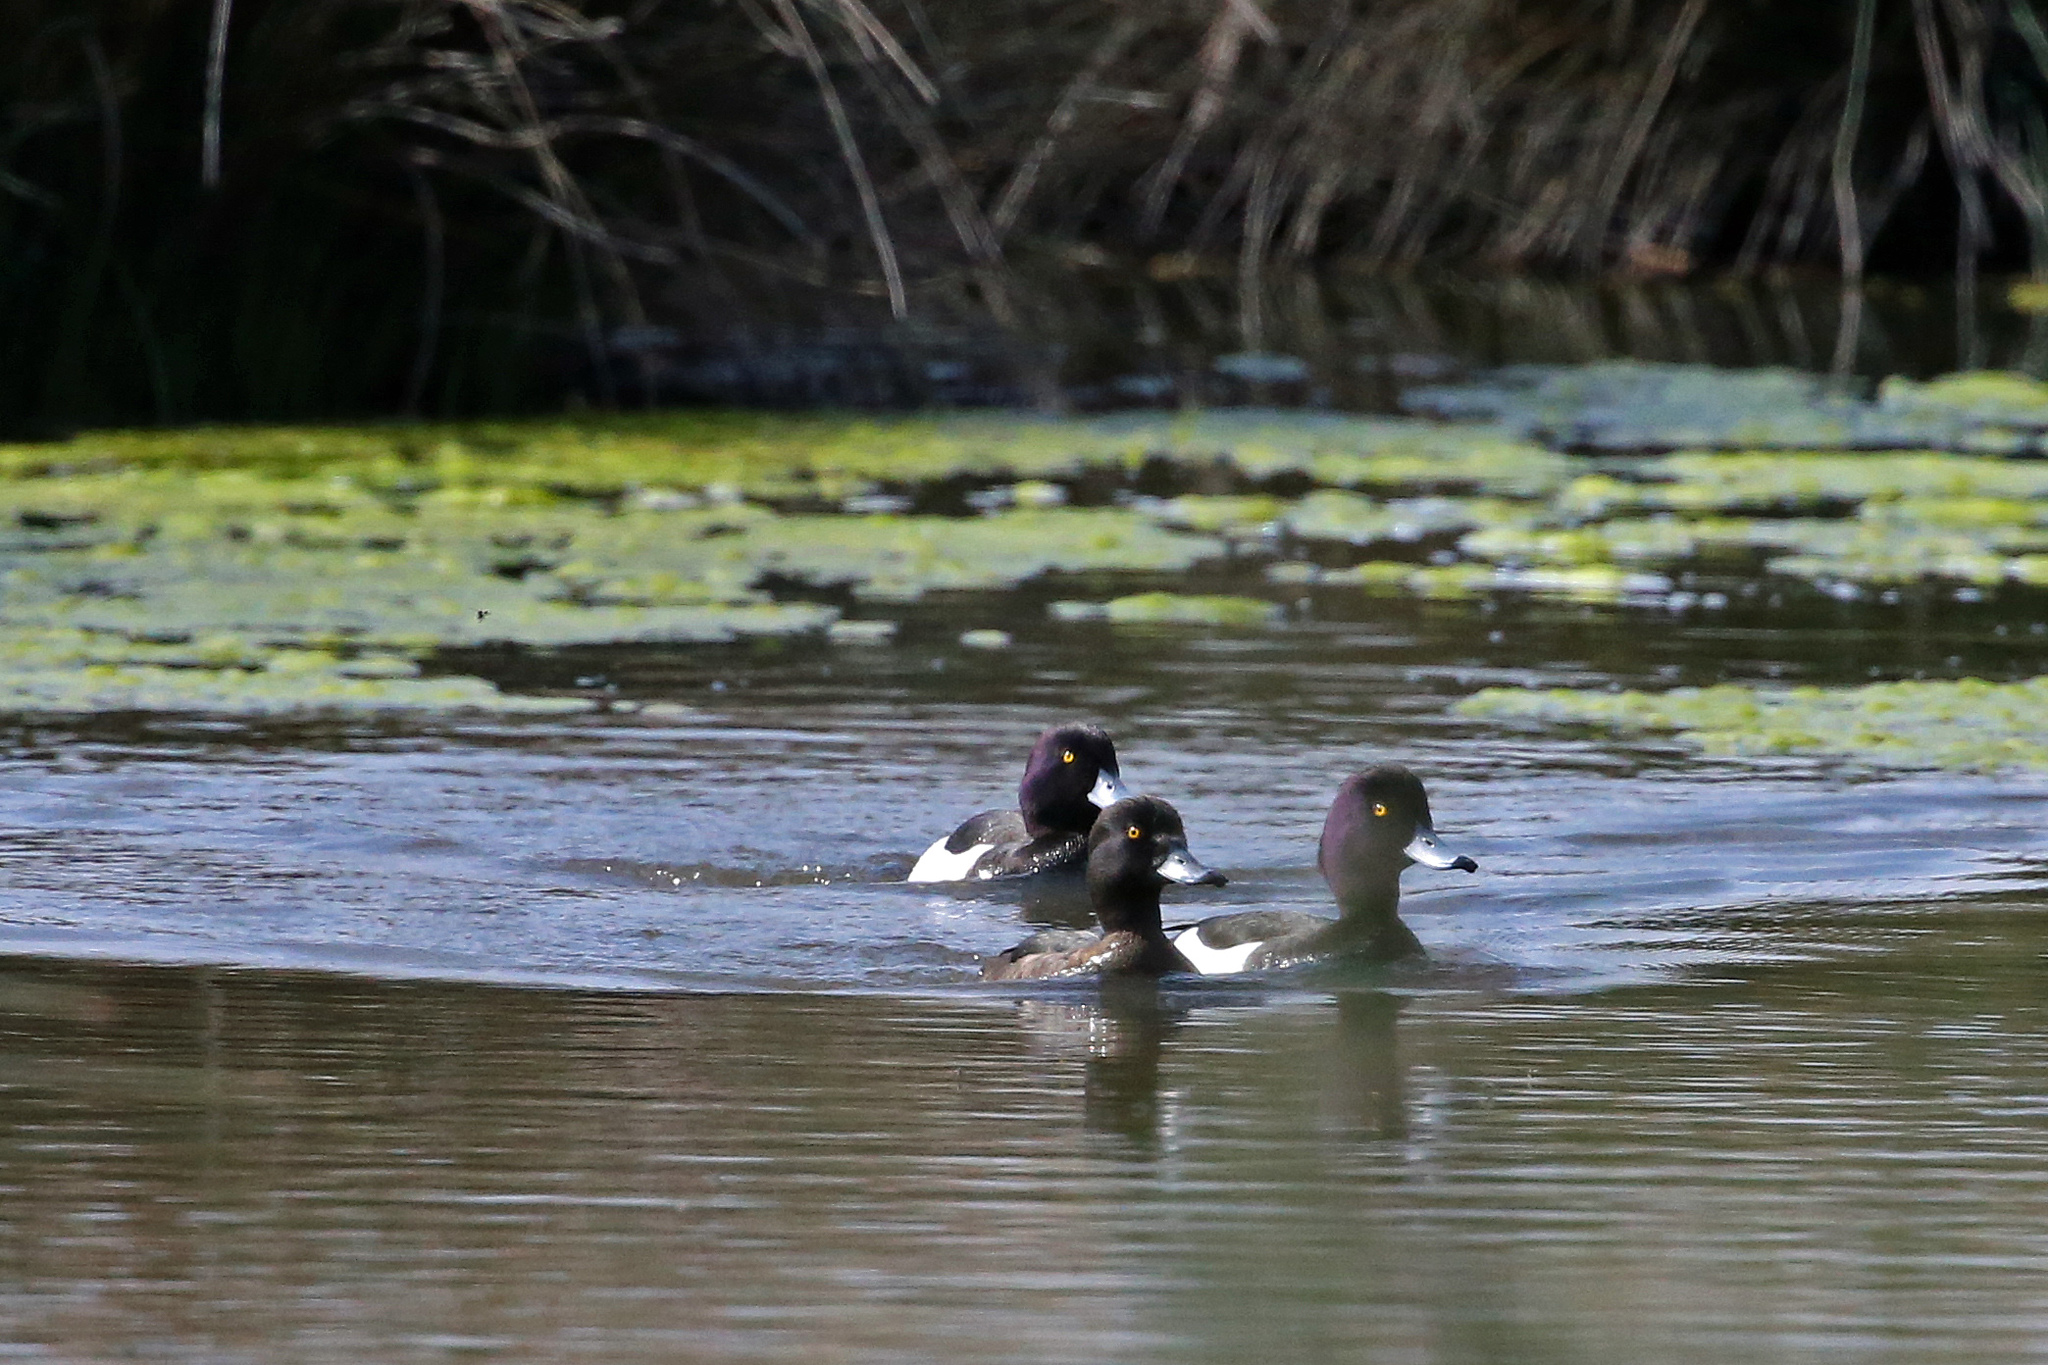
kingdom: Animalia
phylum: Chordata
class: Aves
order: Anseriformes
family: Anatidae
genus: Aythya
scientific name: Aythya fuligula
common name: Tufted duck
